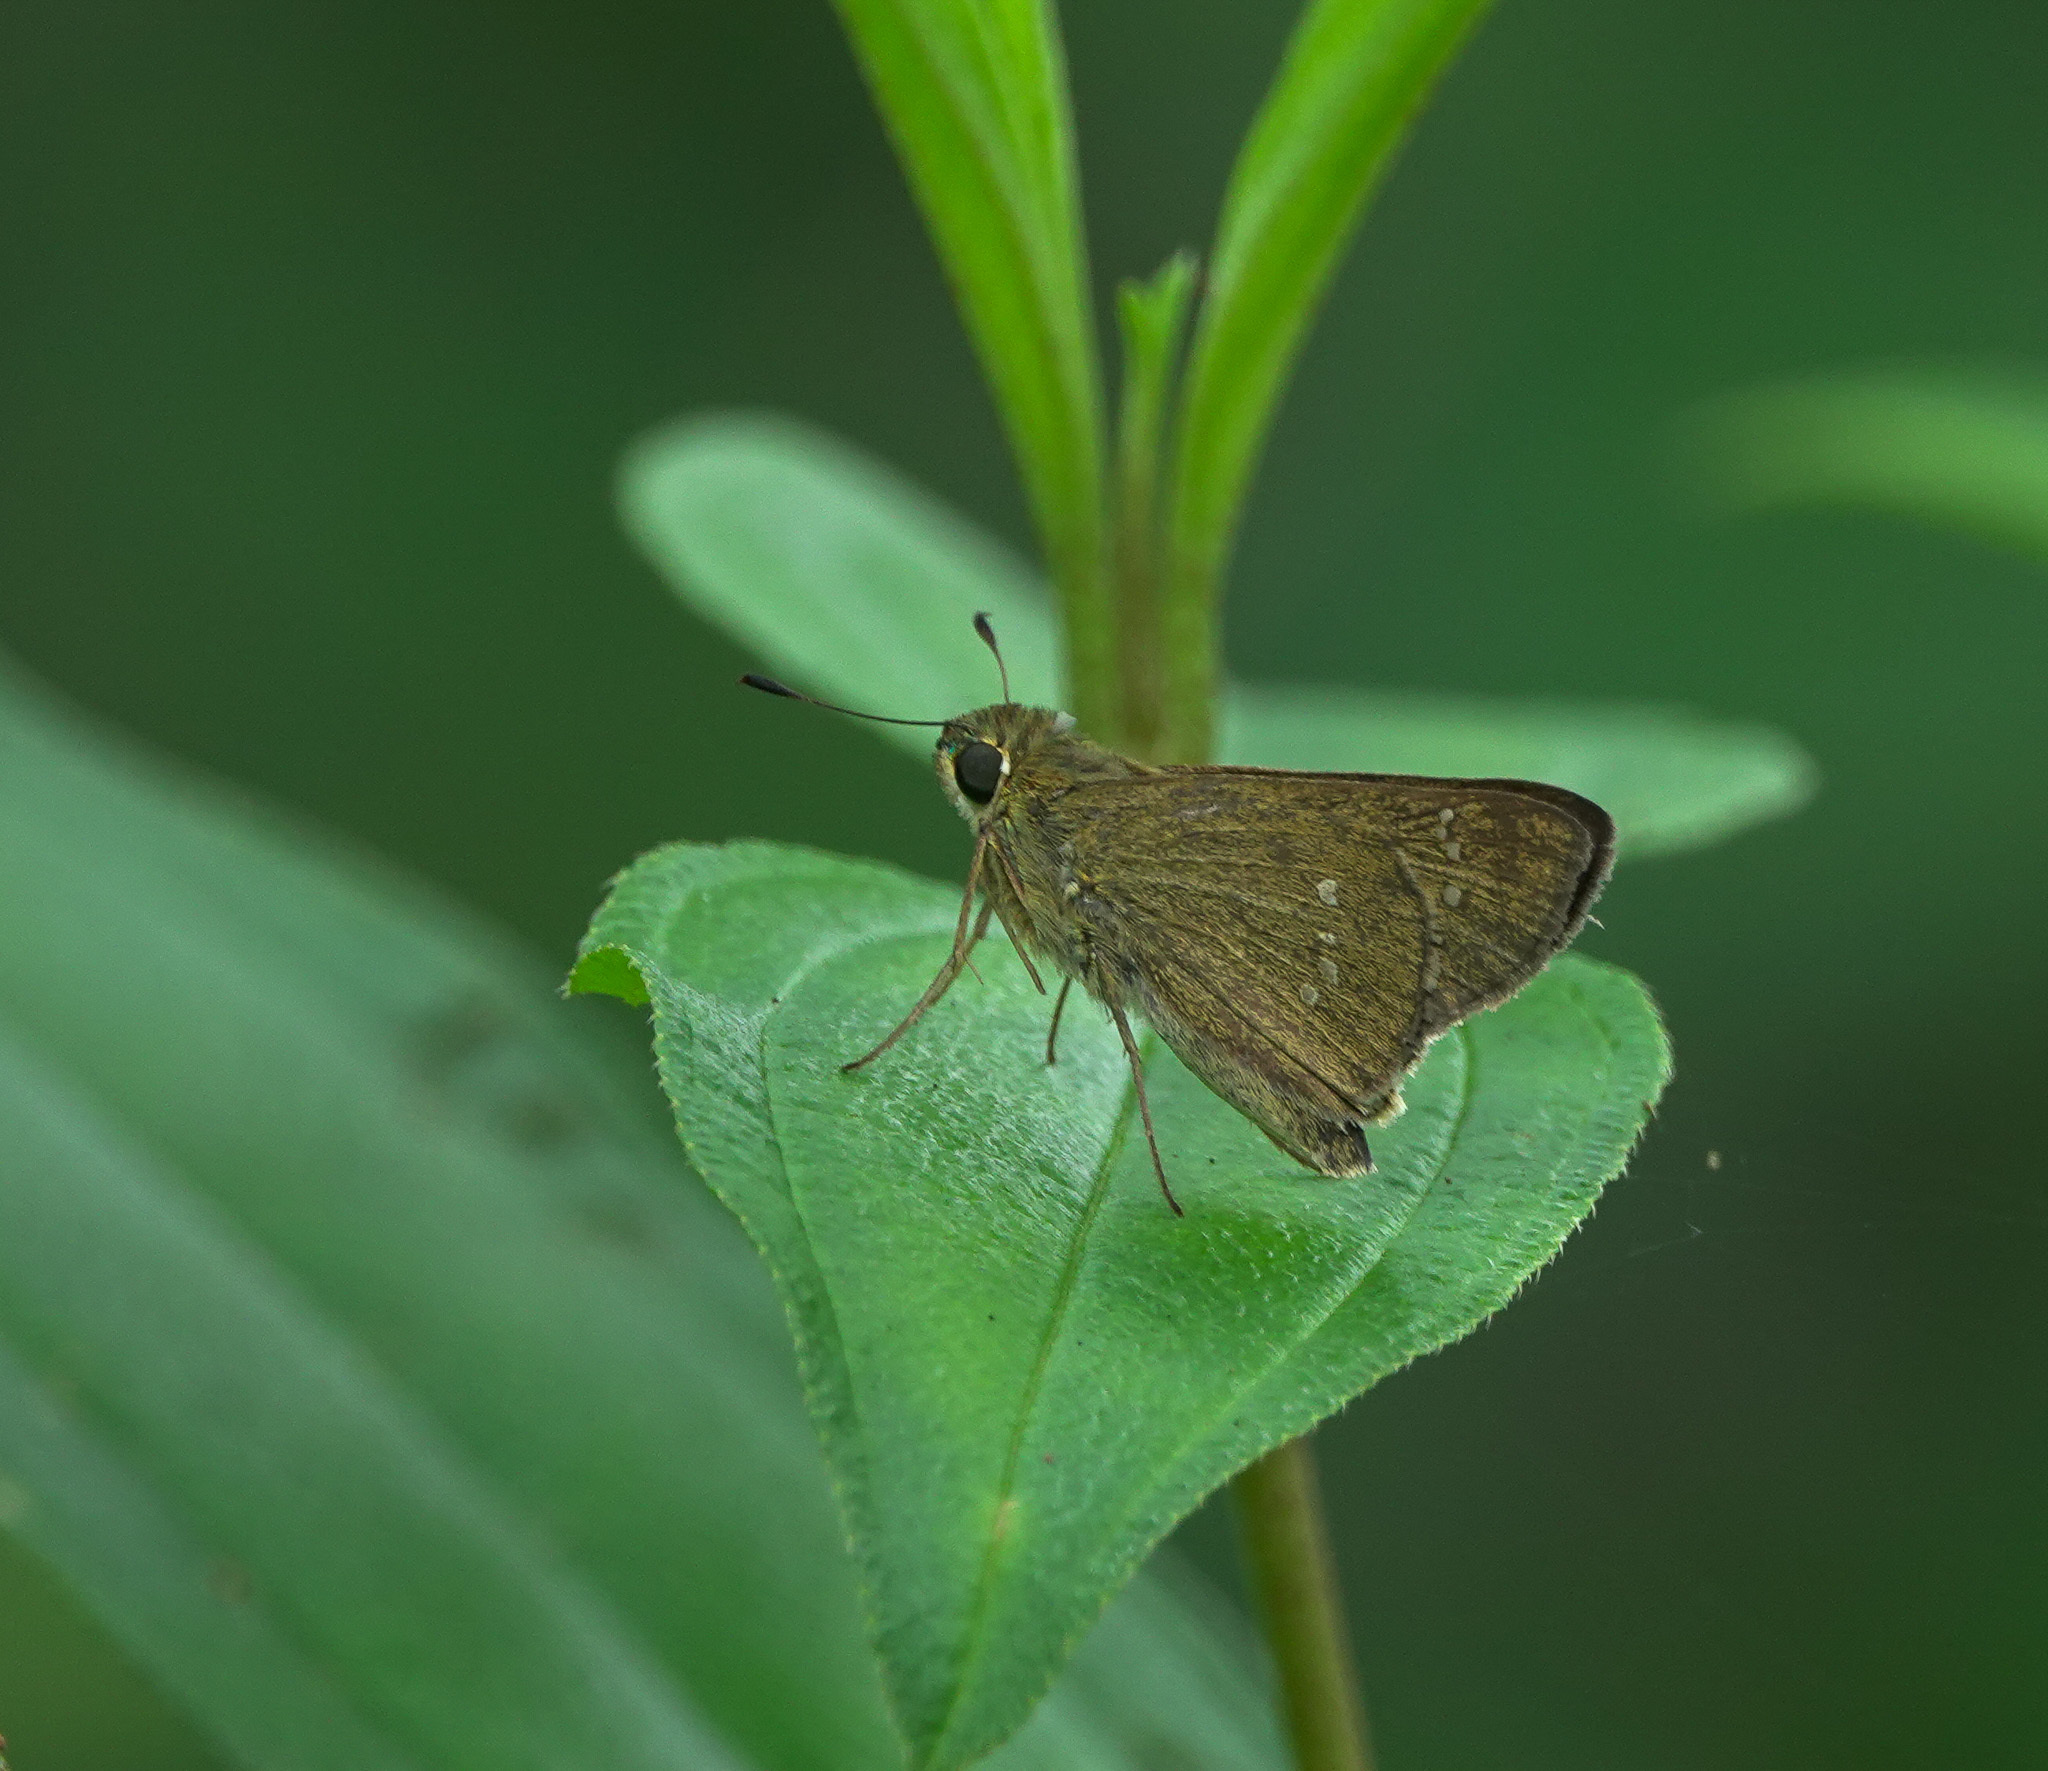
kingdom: Animalia
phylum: Arthropoda
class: Insecta
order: Lepidoptera
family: Hesperiidae
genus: Borbo
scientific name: Borbo cinnara
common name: Formosan swift
